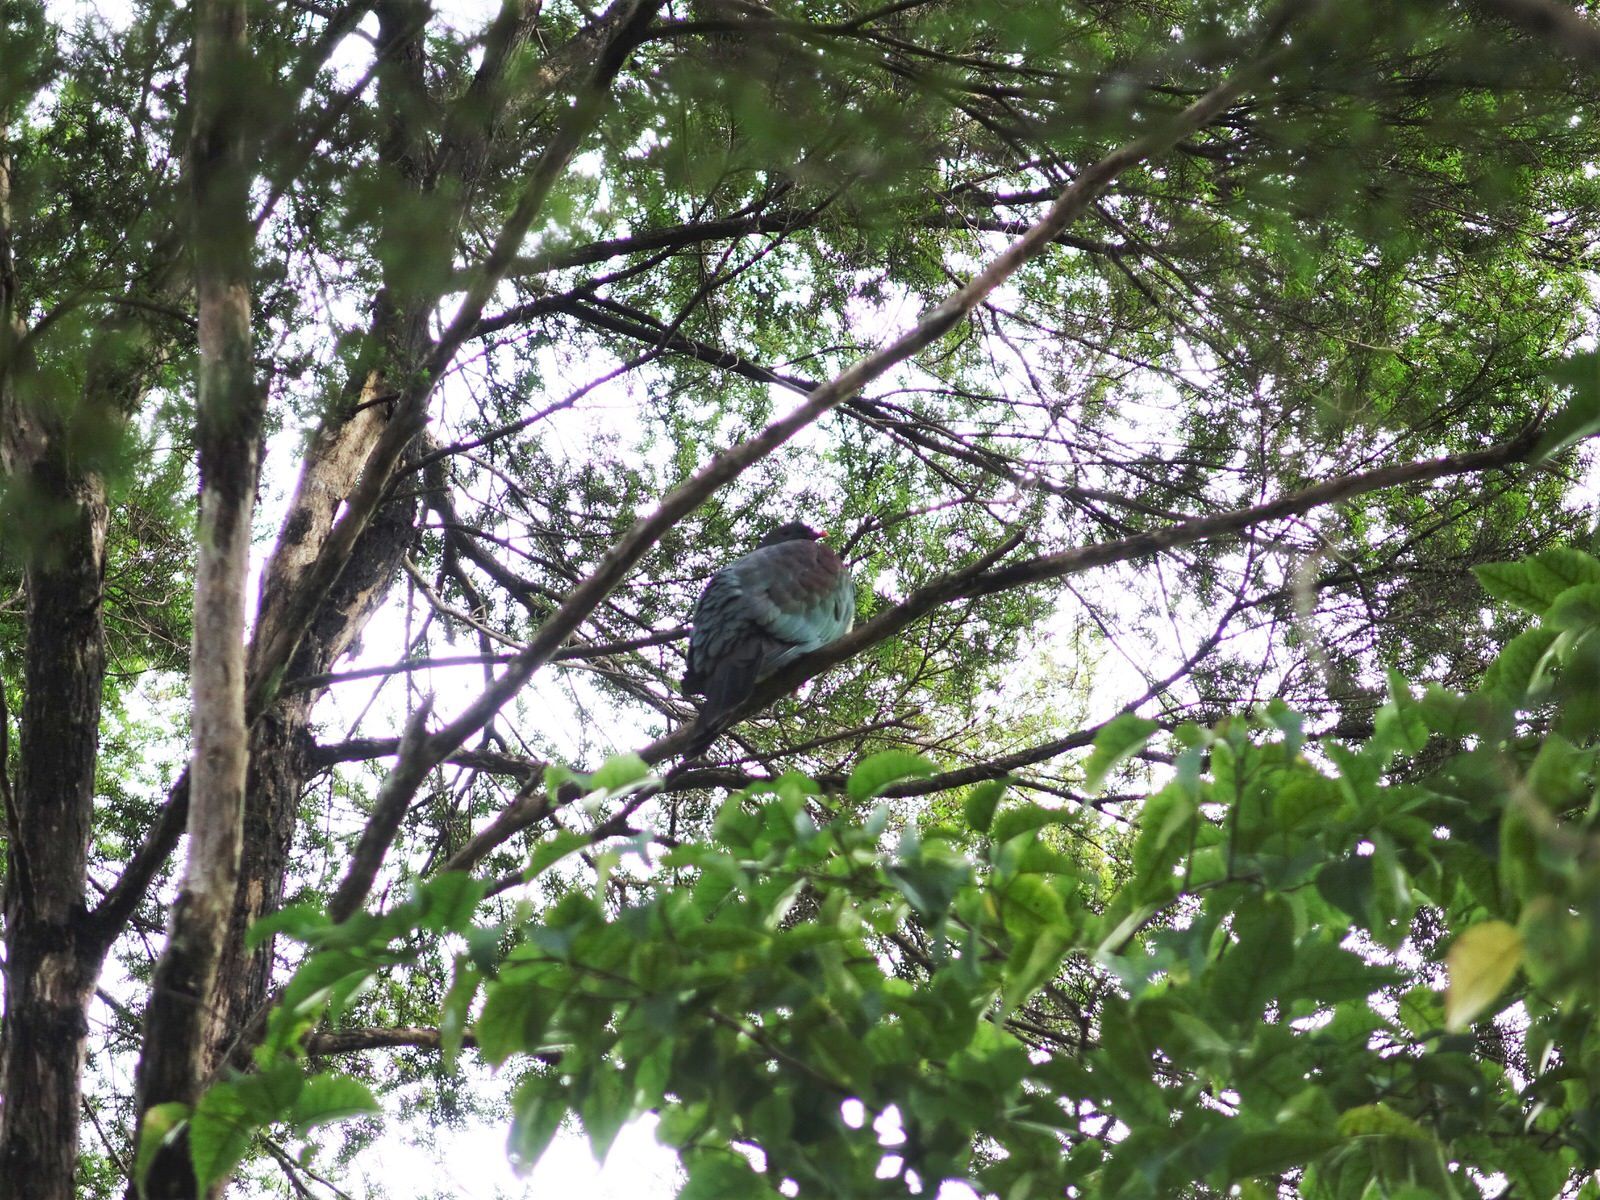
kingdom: Animalia
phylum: Chordata
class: Aves
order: Columbiformes
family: Columbidae
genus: Hemiphaga
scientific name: Hemiphaga novaeseelandiae
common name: New zealand pigeon
